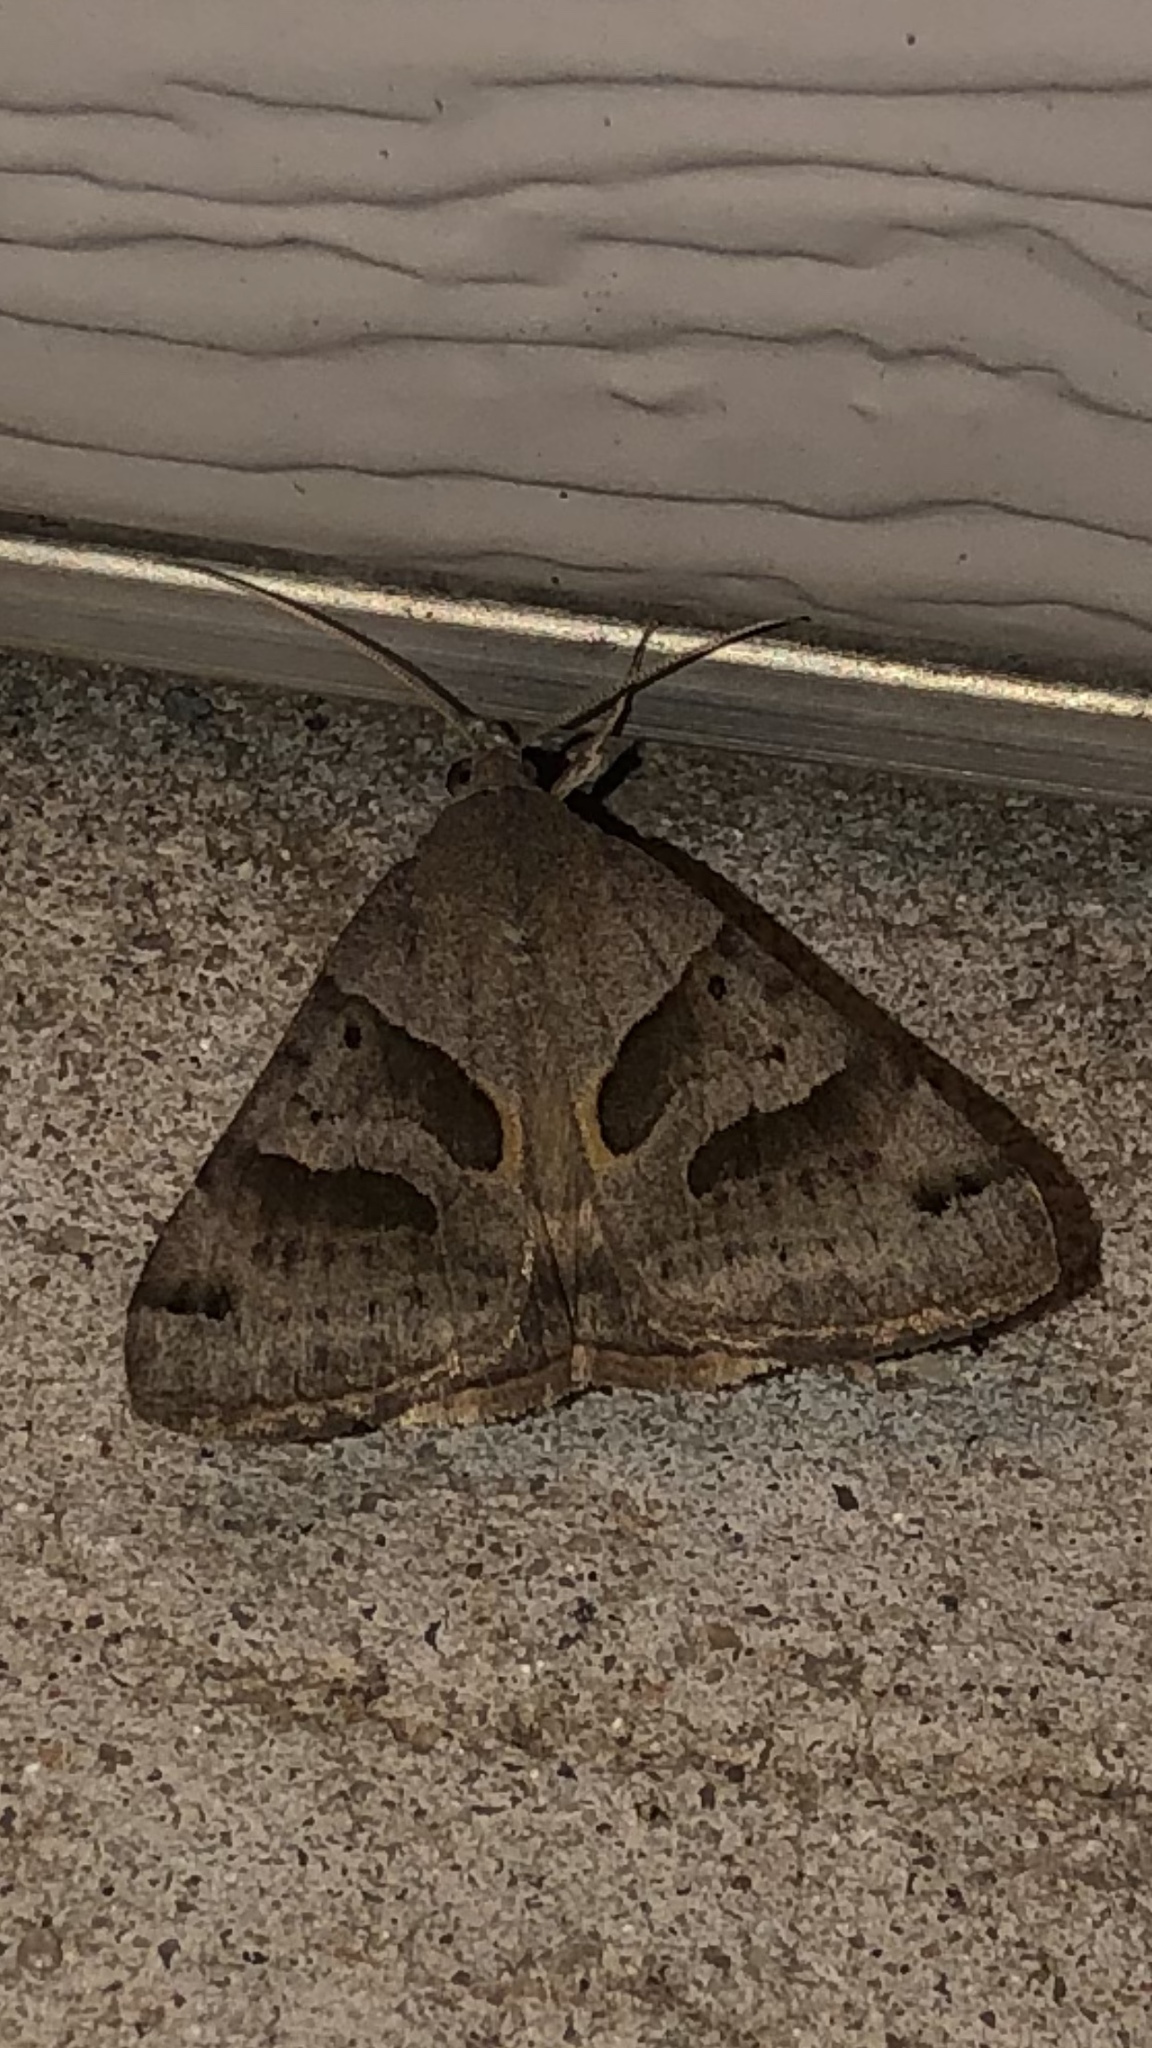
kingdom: Animalia
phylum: Arthropoda
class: Insecta
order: Lepidoptera
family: Erebidae
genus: Caenurgina
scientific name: Caenurgina erechtea
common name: Forage looper moth
